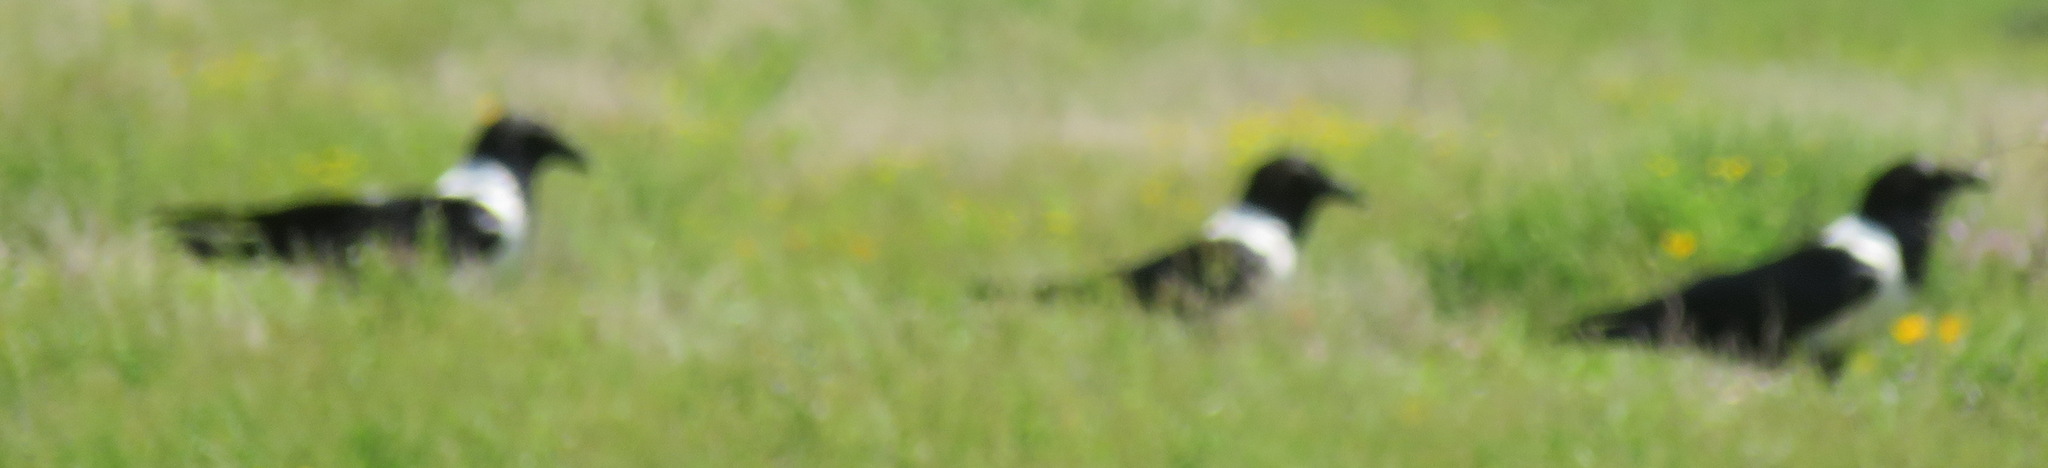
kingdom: Animalia
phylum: Chordata
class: Aves
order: Passeriformes
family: Corvidae
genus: Corvus
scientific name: Corvus albus
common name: Pied crow
